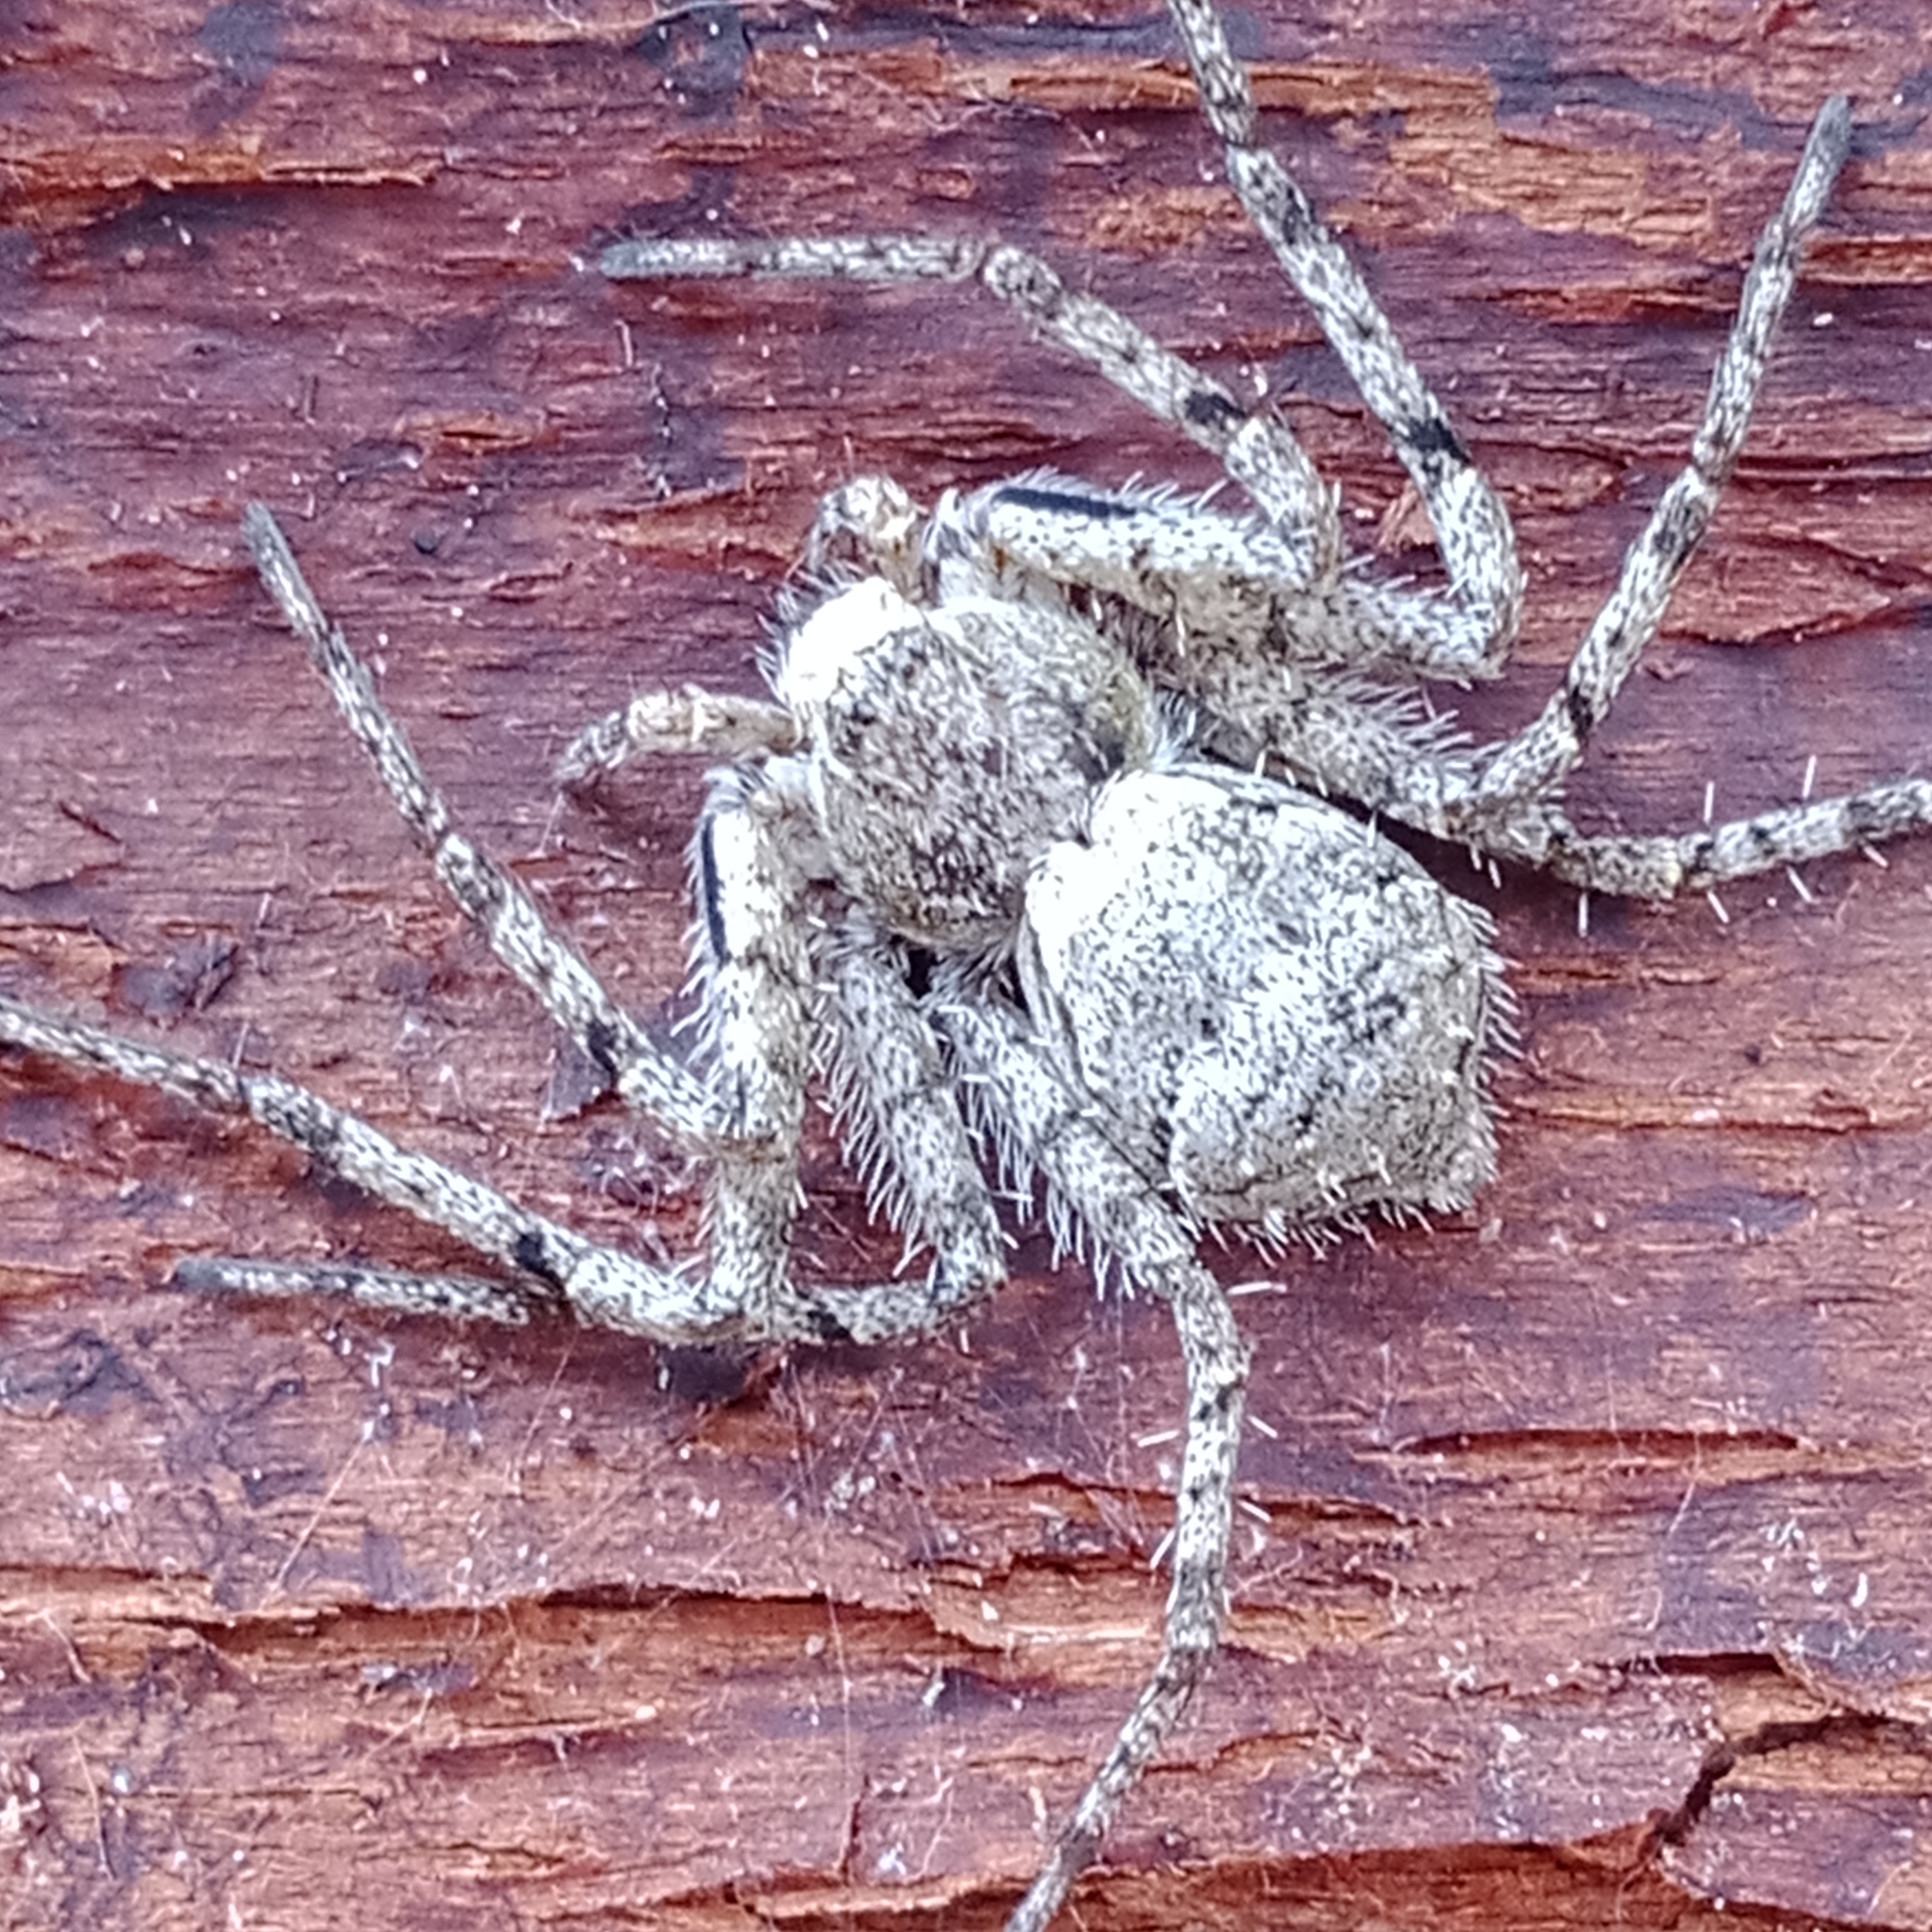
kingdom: Animalia
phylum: Arthropoda
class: Arachnida
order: Araneae
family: Philodromidae
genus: Philodromus
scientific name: Philodromus margaritatus
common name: Lichen running-spider
